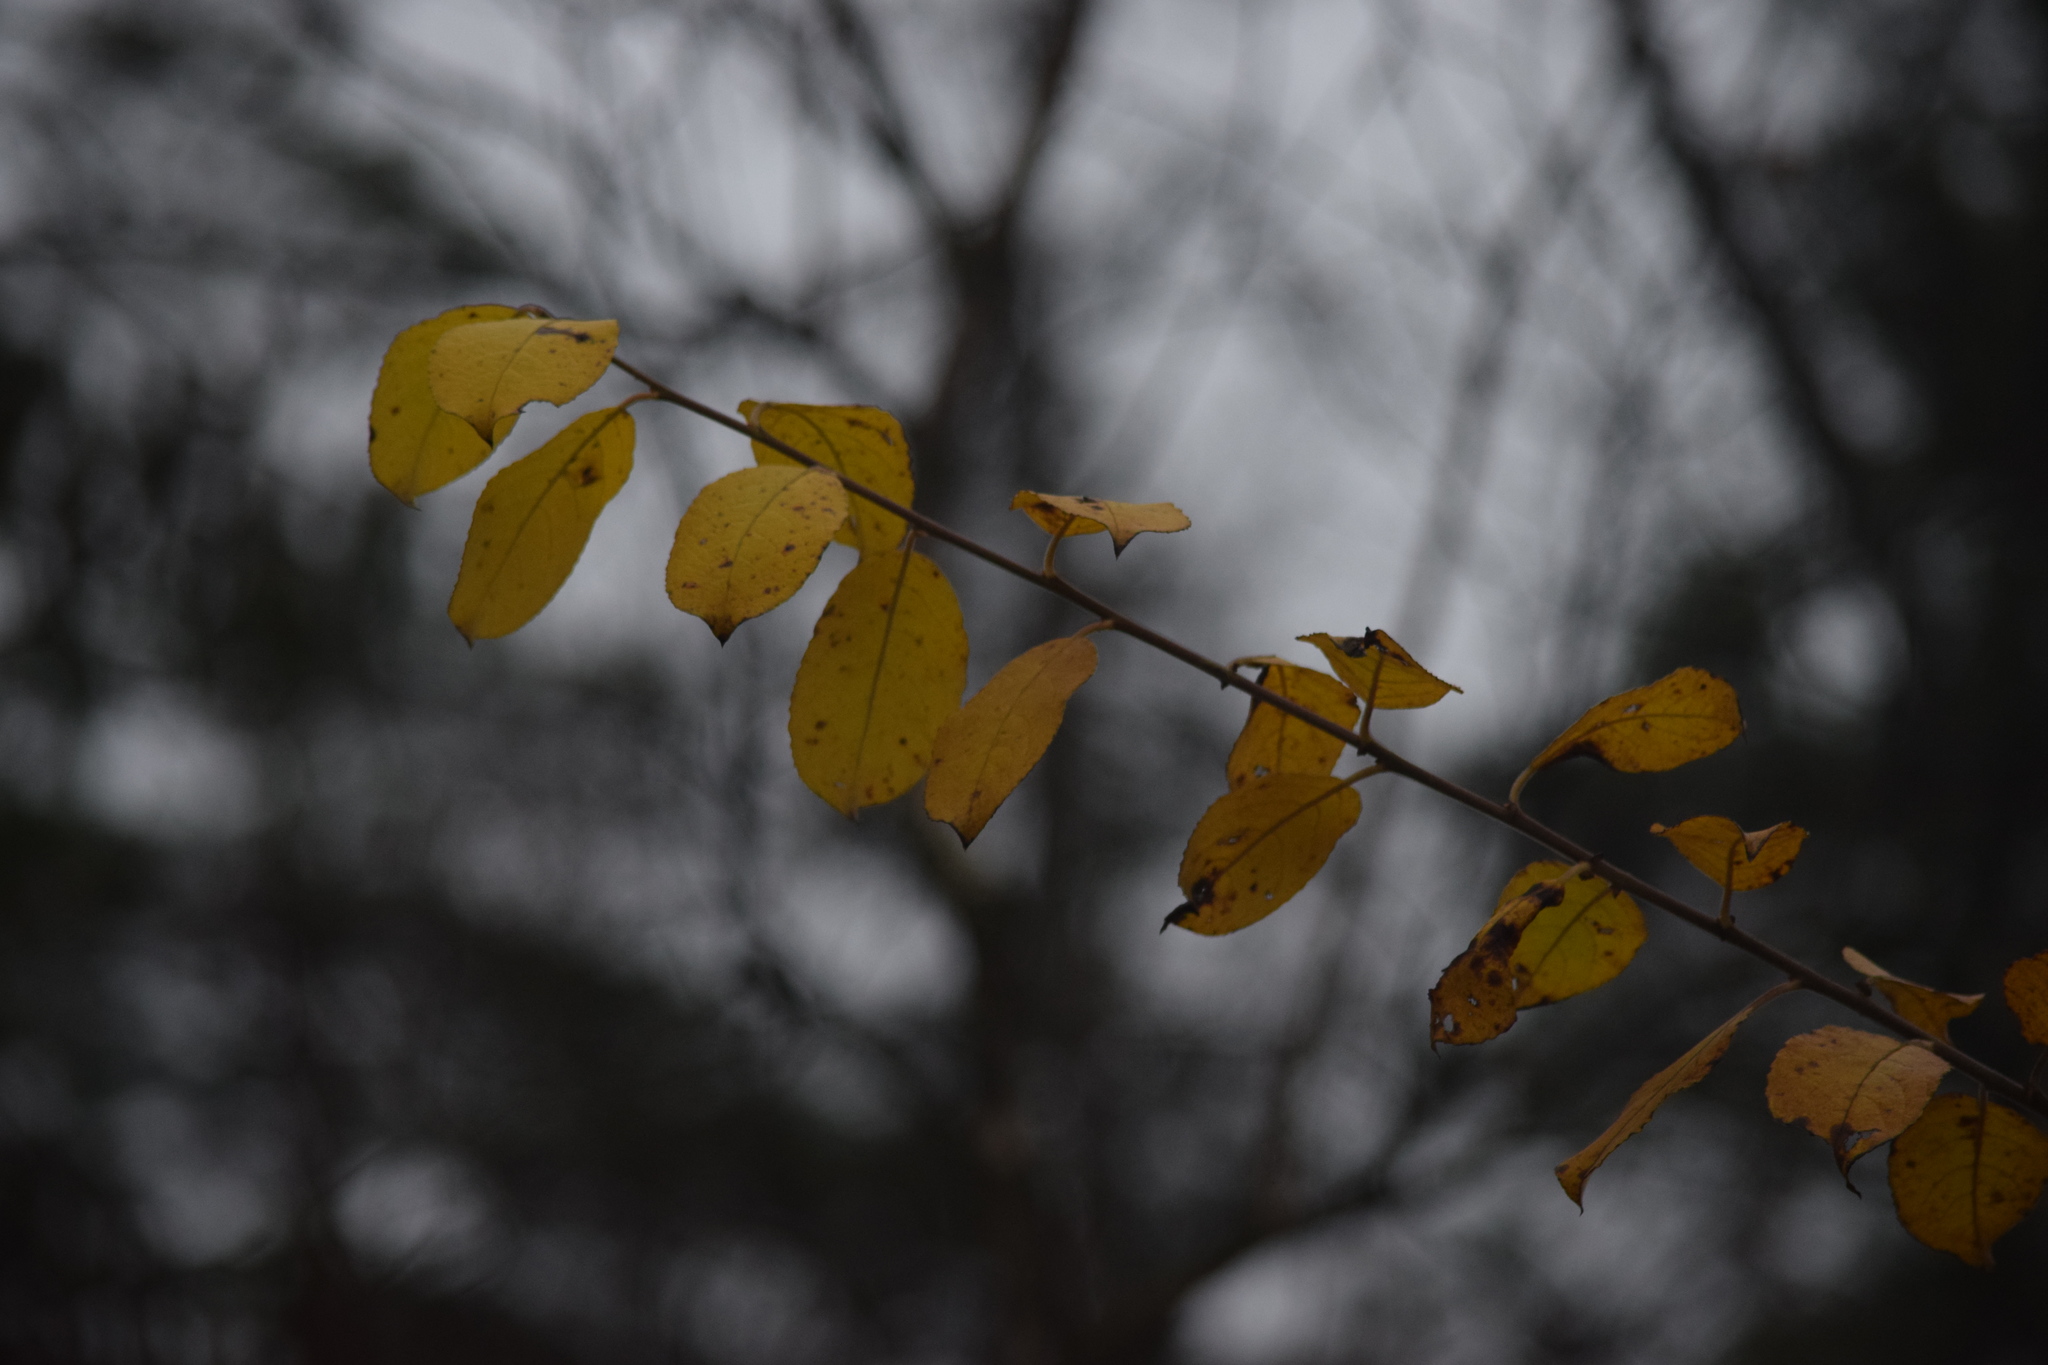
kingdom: Plantae
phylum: Tracheophyta
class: Magnoliopsida
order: Rosales
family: Rosaceae
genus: Prunus
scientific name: Prunus padus
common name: Bird cherry
